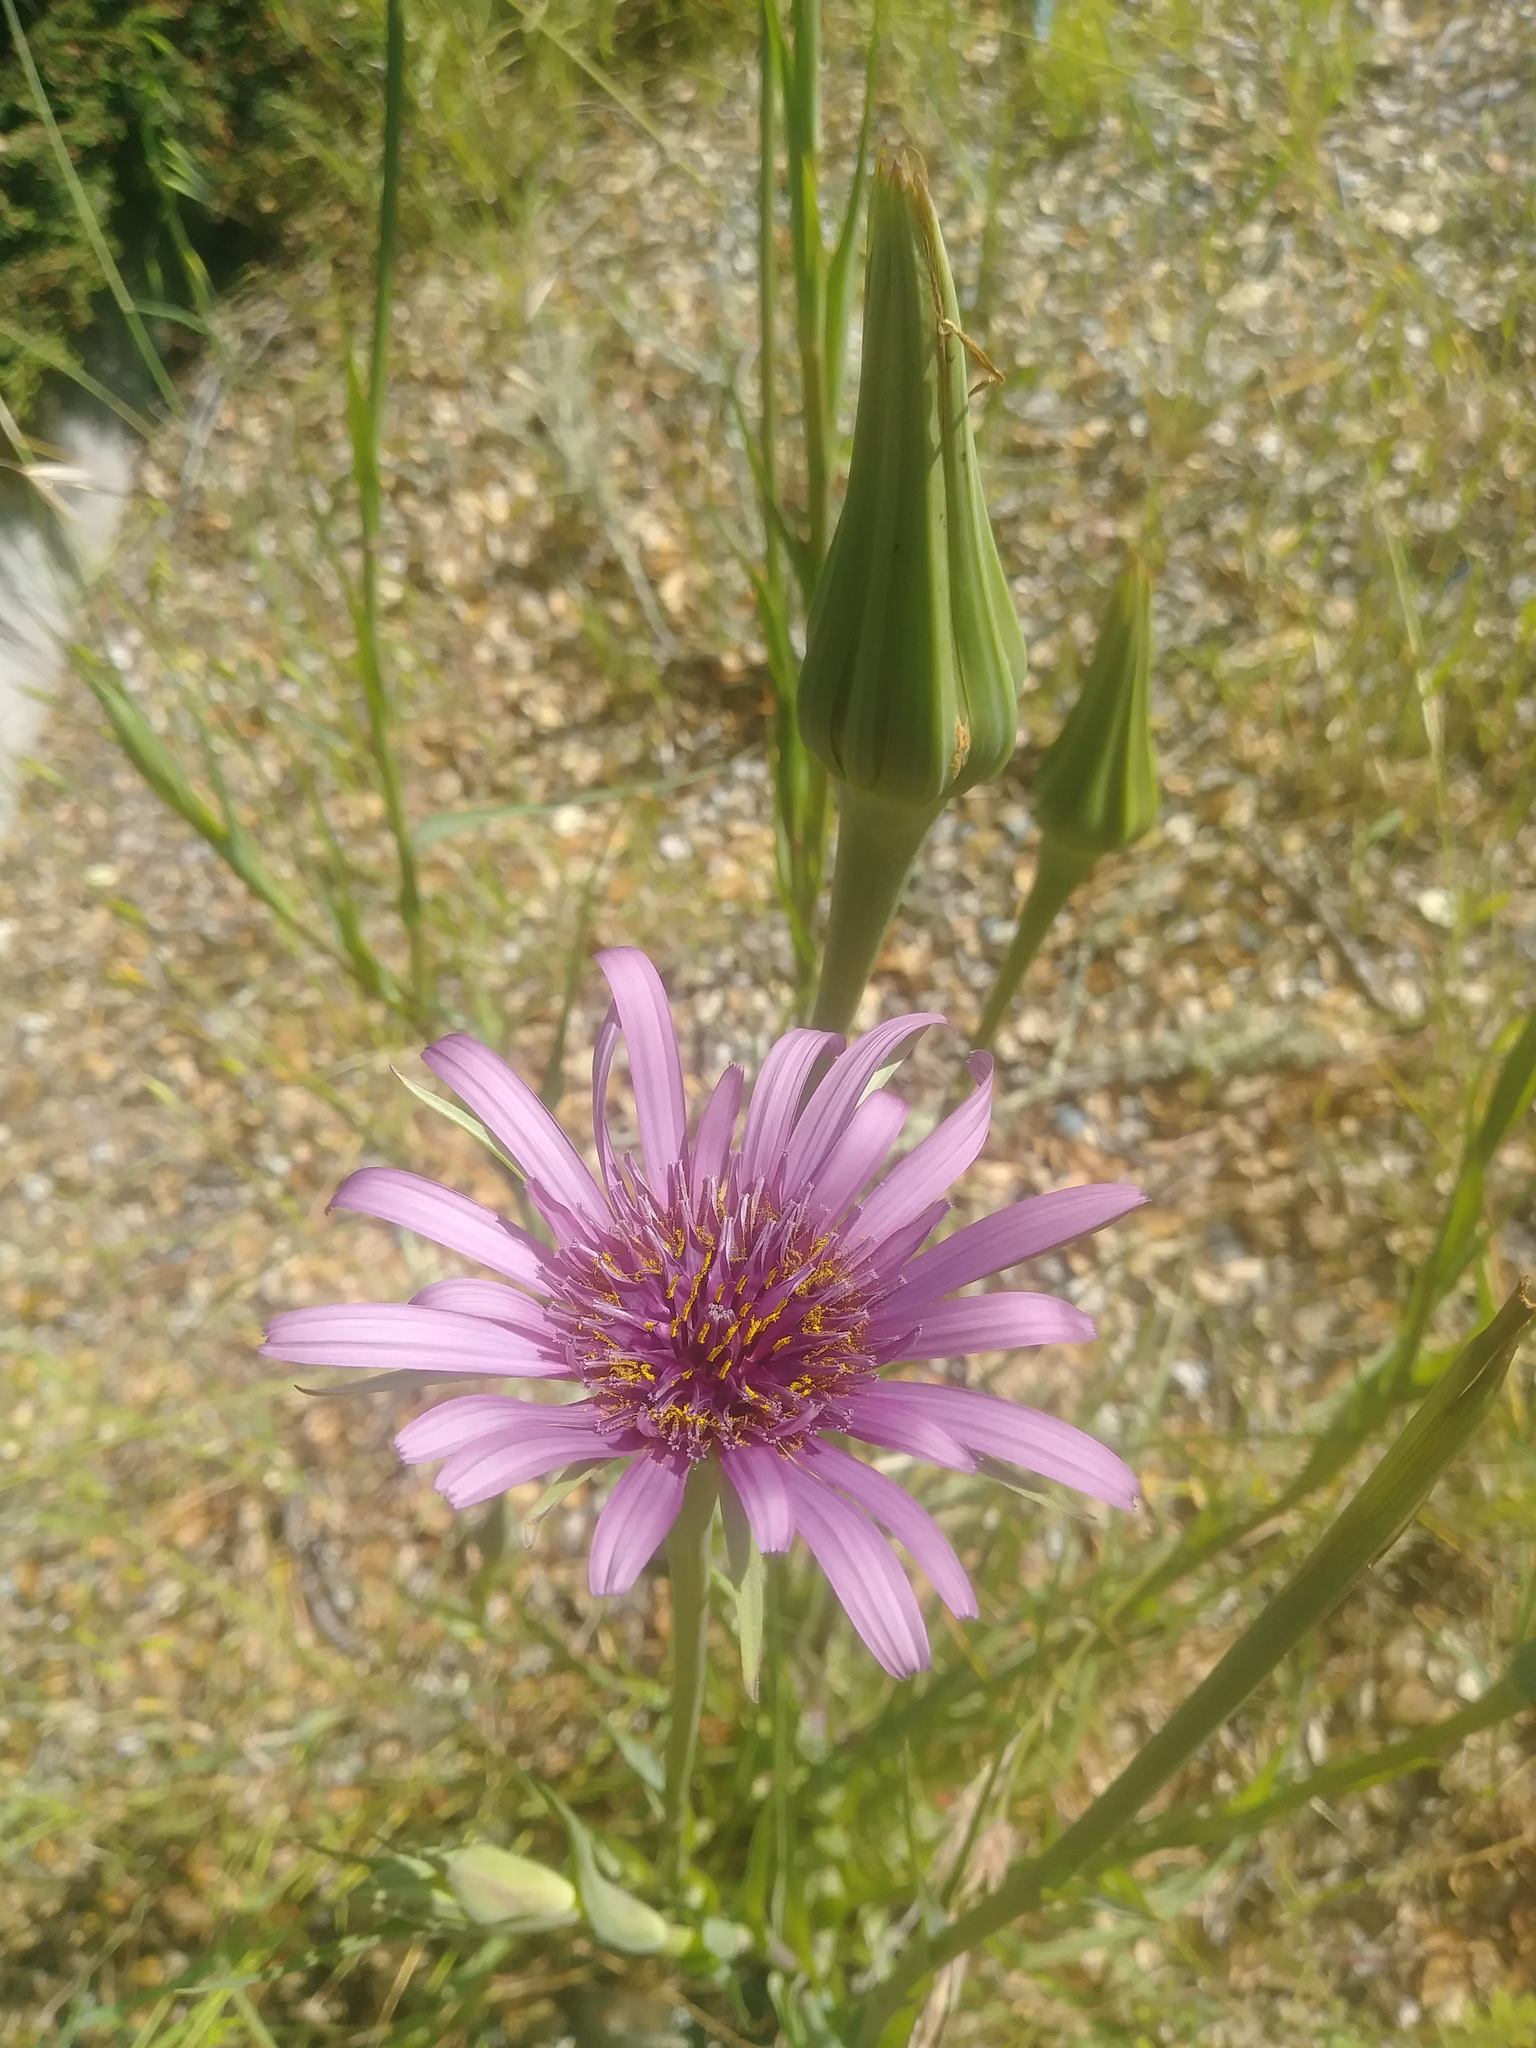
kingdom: Plantae
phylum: Tracheophyta
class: Magnoliopsida
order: Asterales
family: Asteraceae
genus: Tragopogon
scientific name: Tragopogon porrifolius
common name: Salsify
